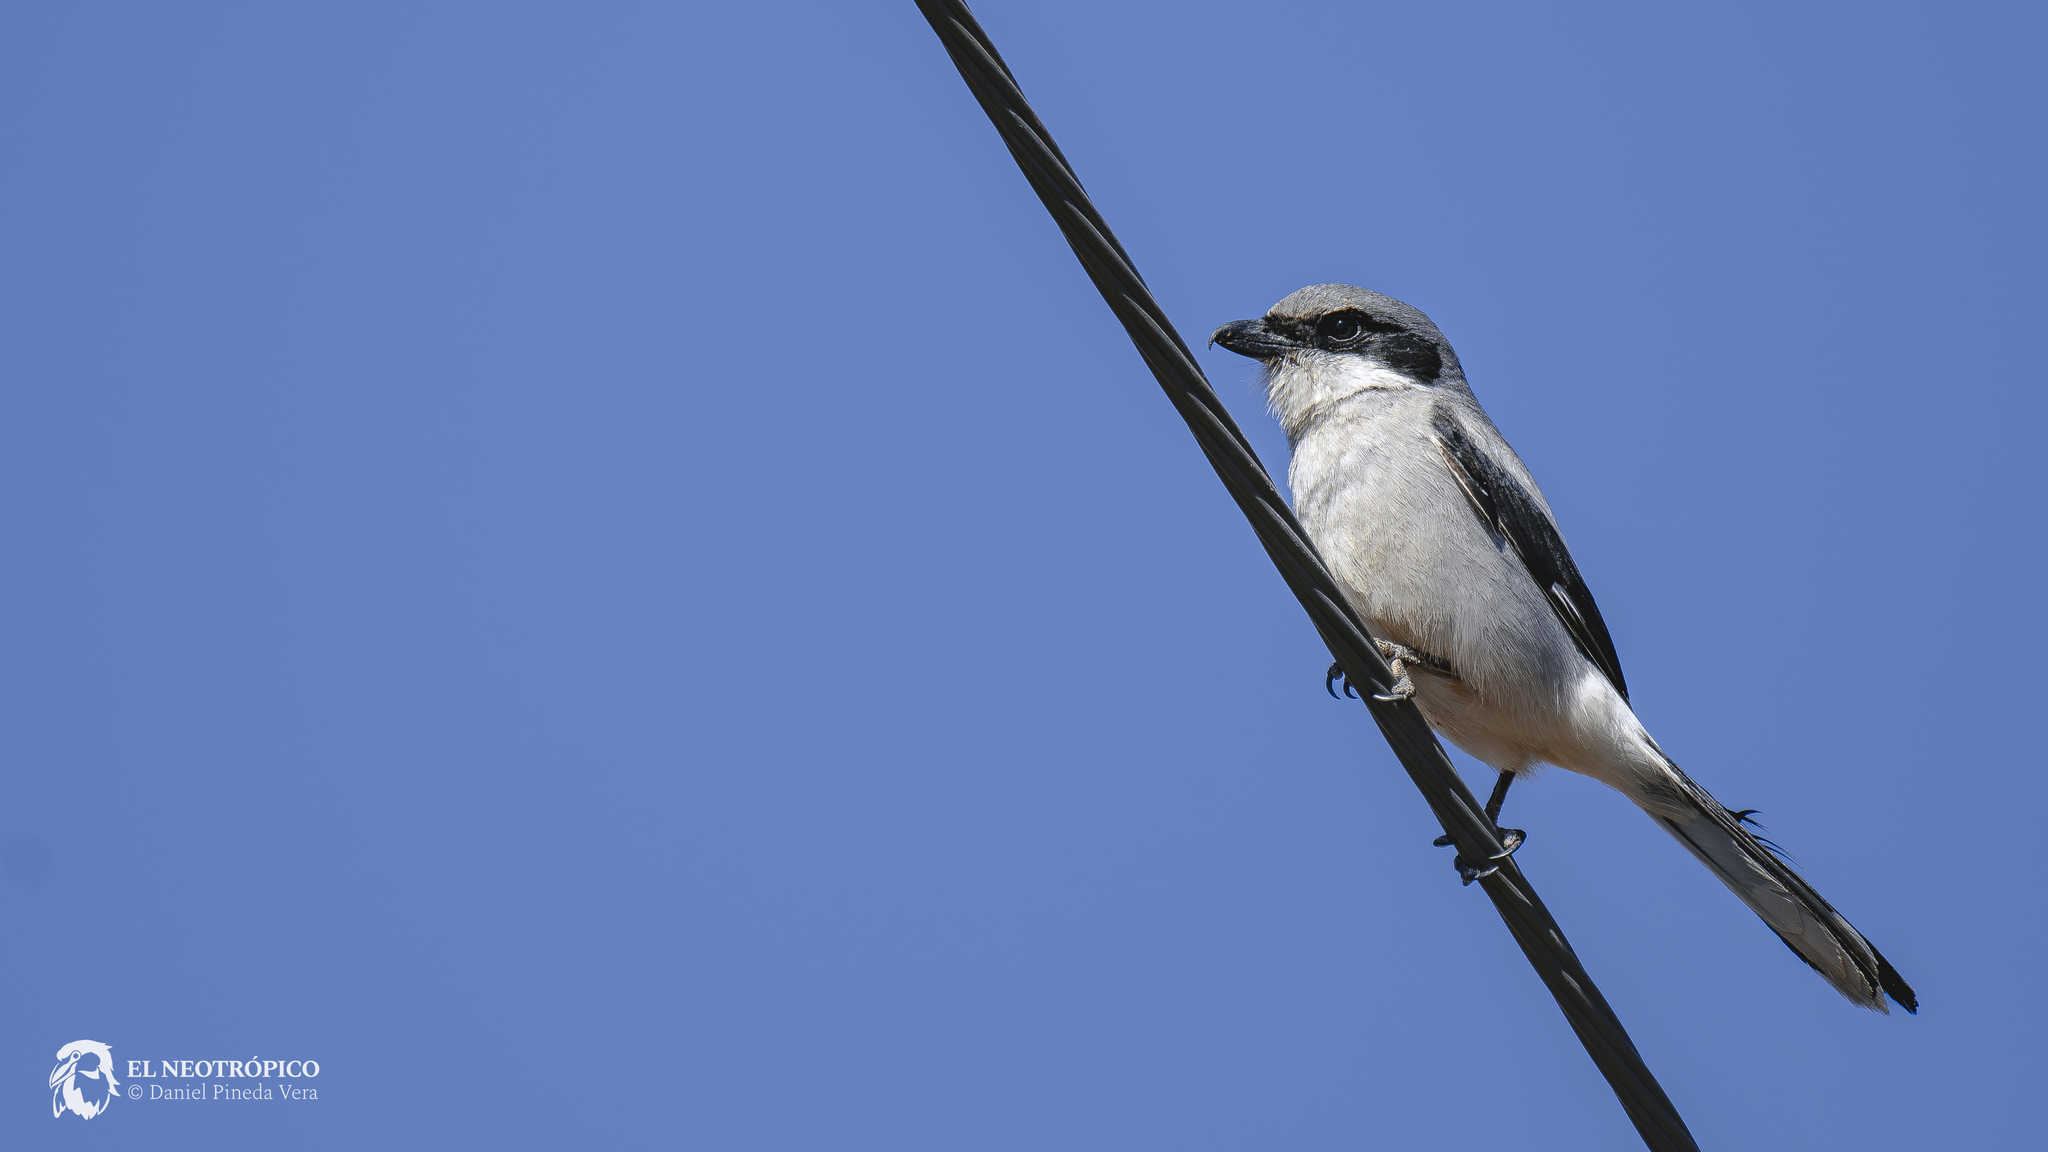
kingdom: Animalia
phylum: Chordata
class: Aves
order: Passeriformes
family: Laniidae
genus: Lanius
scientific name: Lanius ludovicianus
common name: Loggerhead shrike
